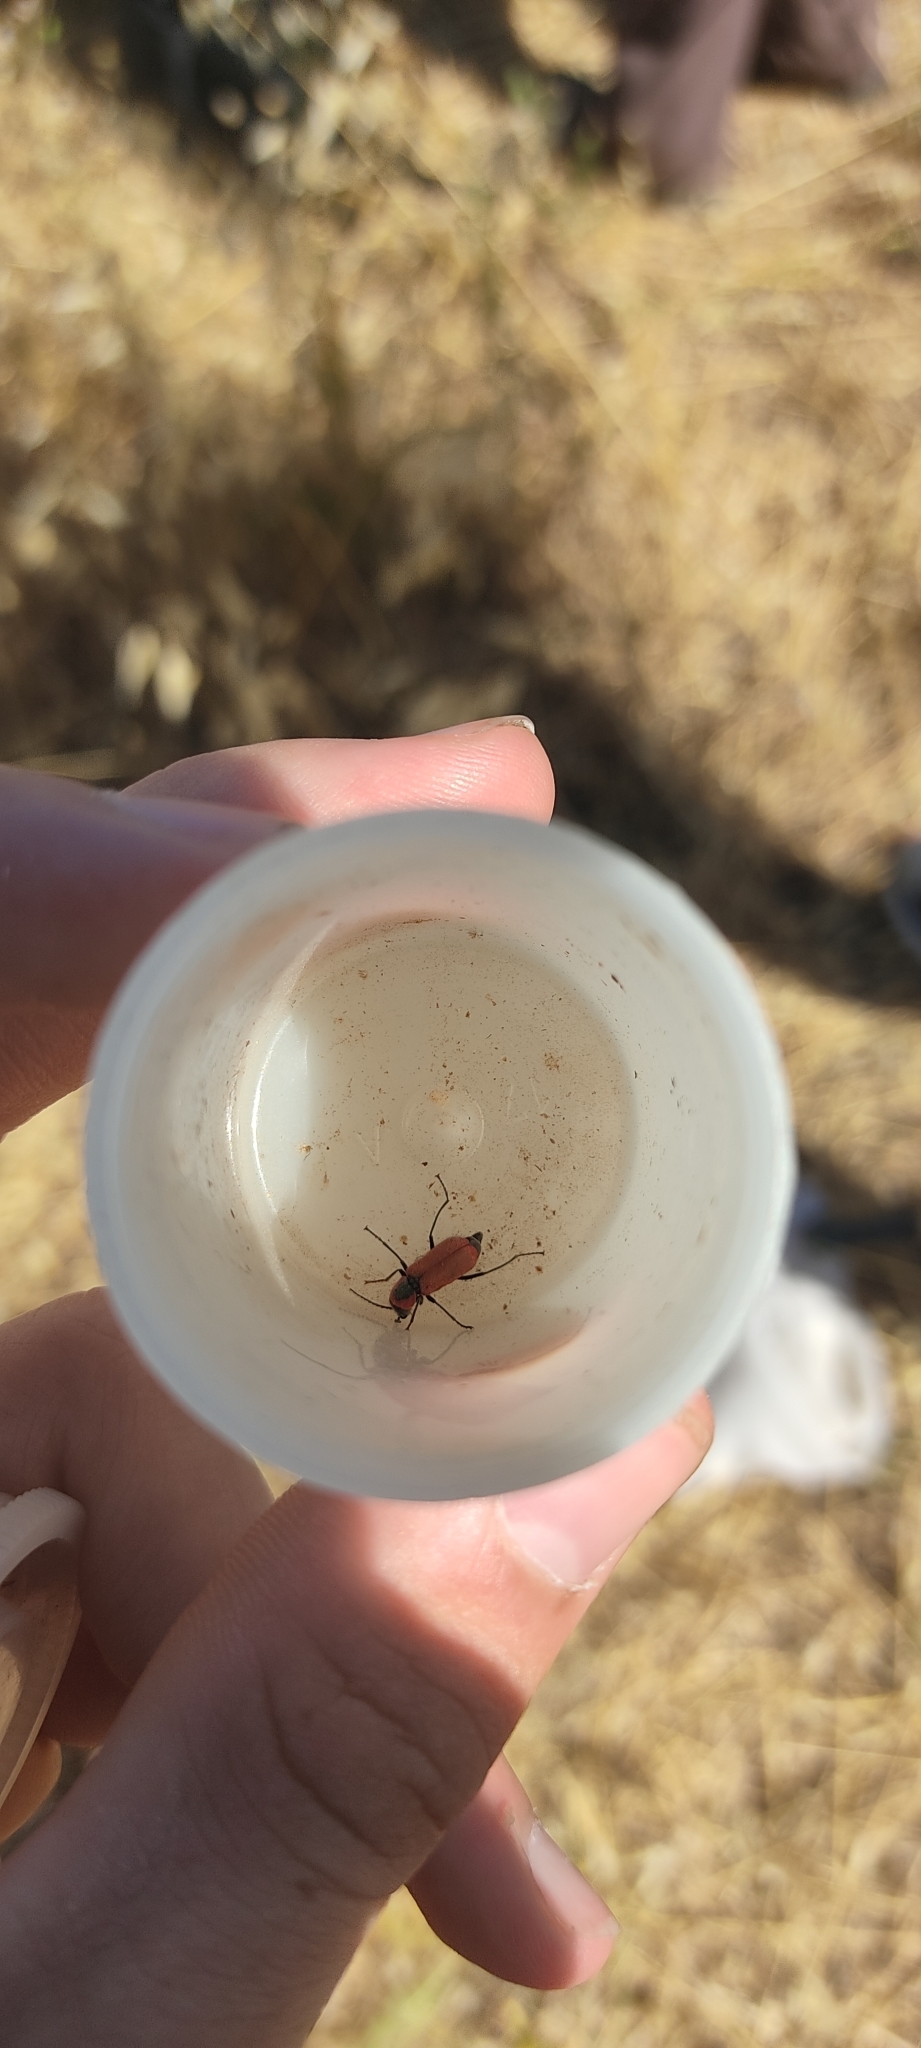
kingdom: Animalia
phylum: Arthropoda
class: Insecta
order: Coleoptera
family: Malachiidae
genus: Clanoptilus
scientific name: Clanoptilus rufus
